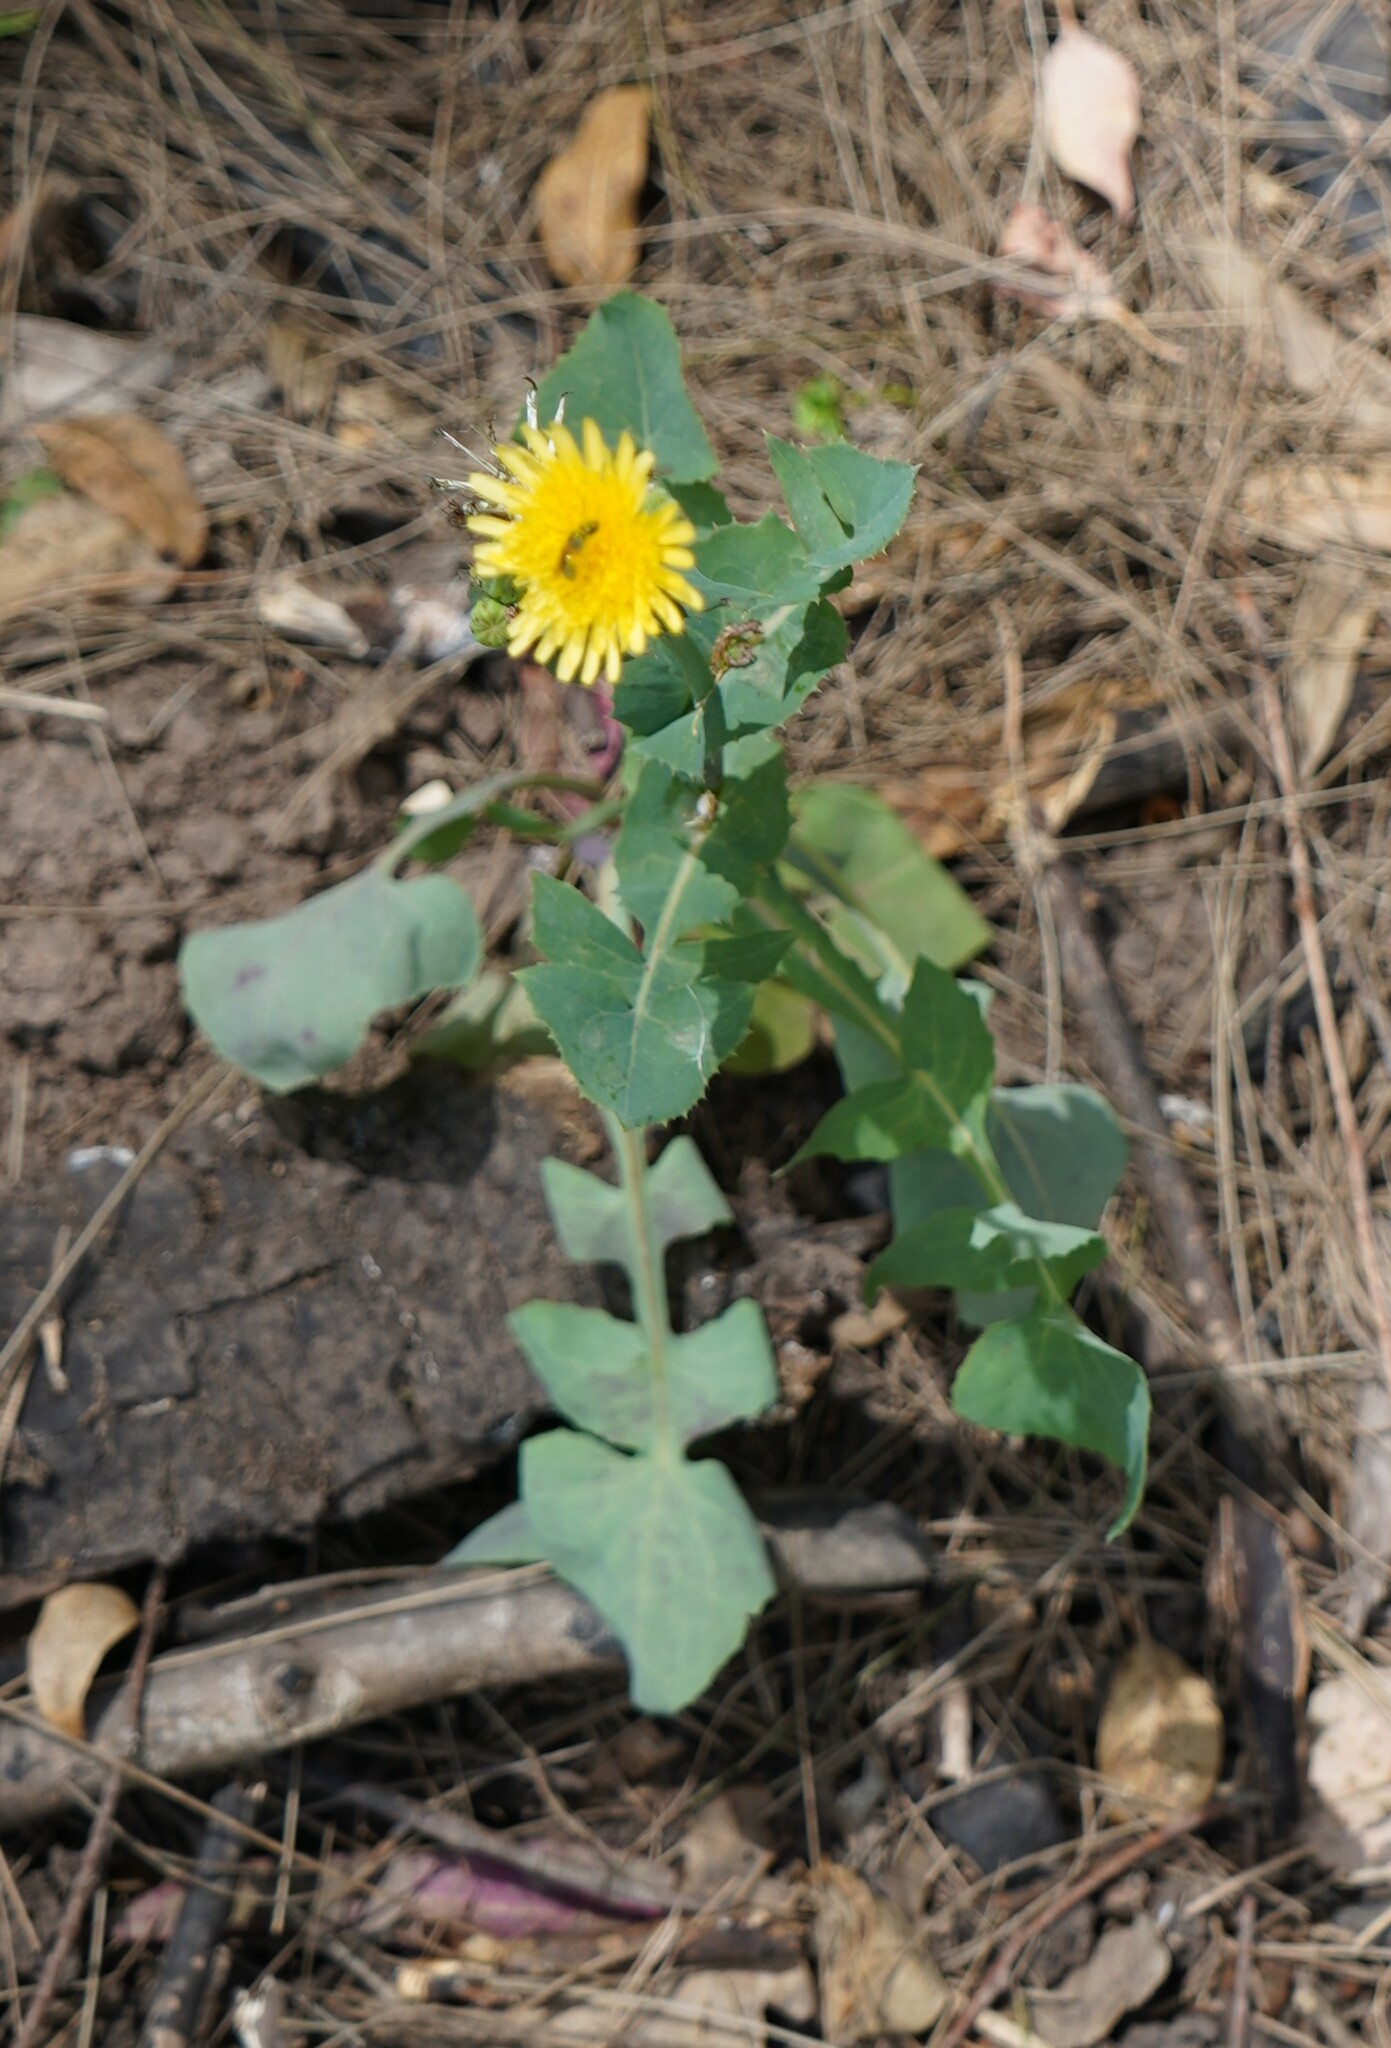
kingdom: Plantae
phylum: Tracheophyta
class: Magnoliopsida
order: Asterales
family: Asteraceae
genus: Sonchus
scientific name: Sonchus oleraceus
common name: Common sowthistle
